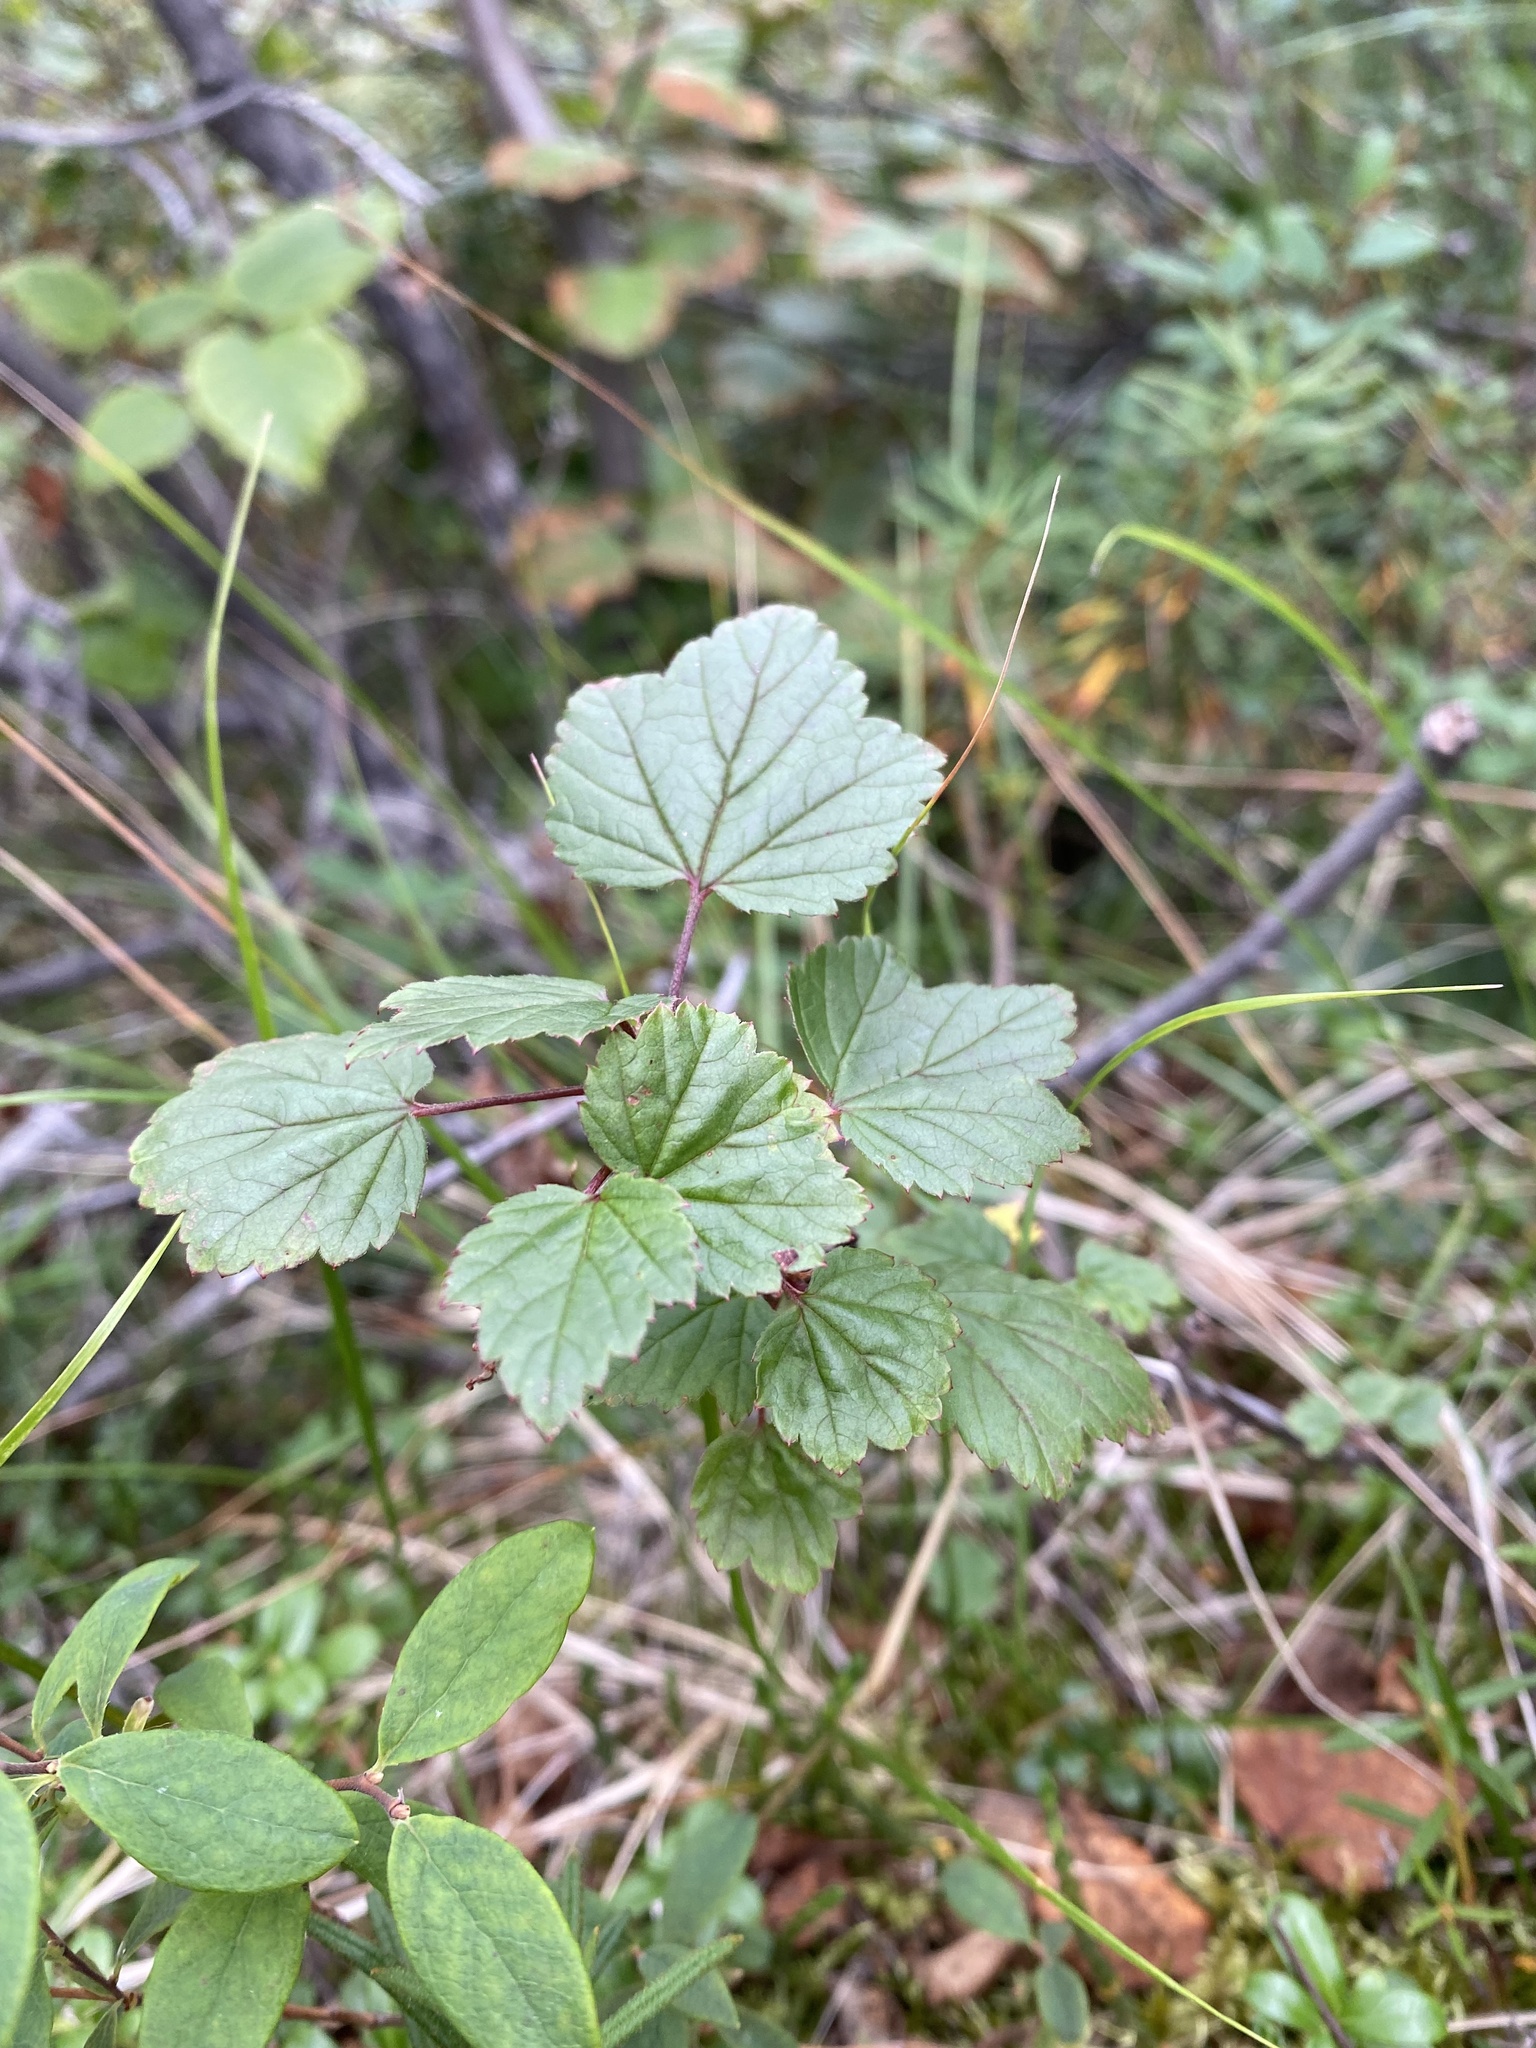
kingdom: Plantae
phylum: Tracheophyta
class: Magnoliopsida
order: Saxifragales
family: Grossulariaceae
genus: Ribes
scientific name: Ribes triste
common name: Swamp red currant
